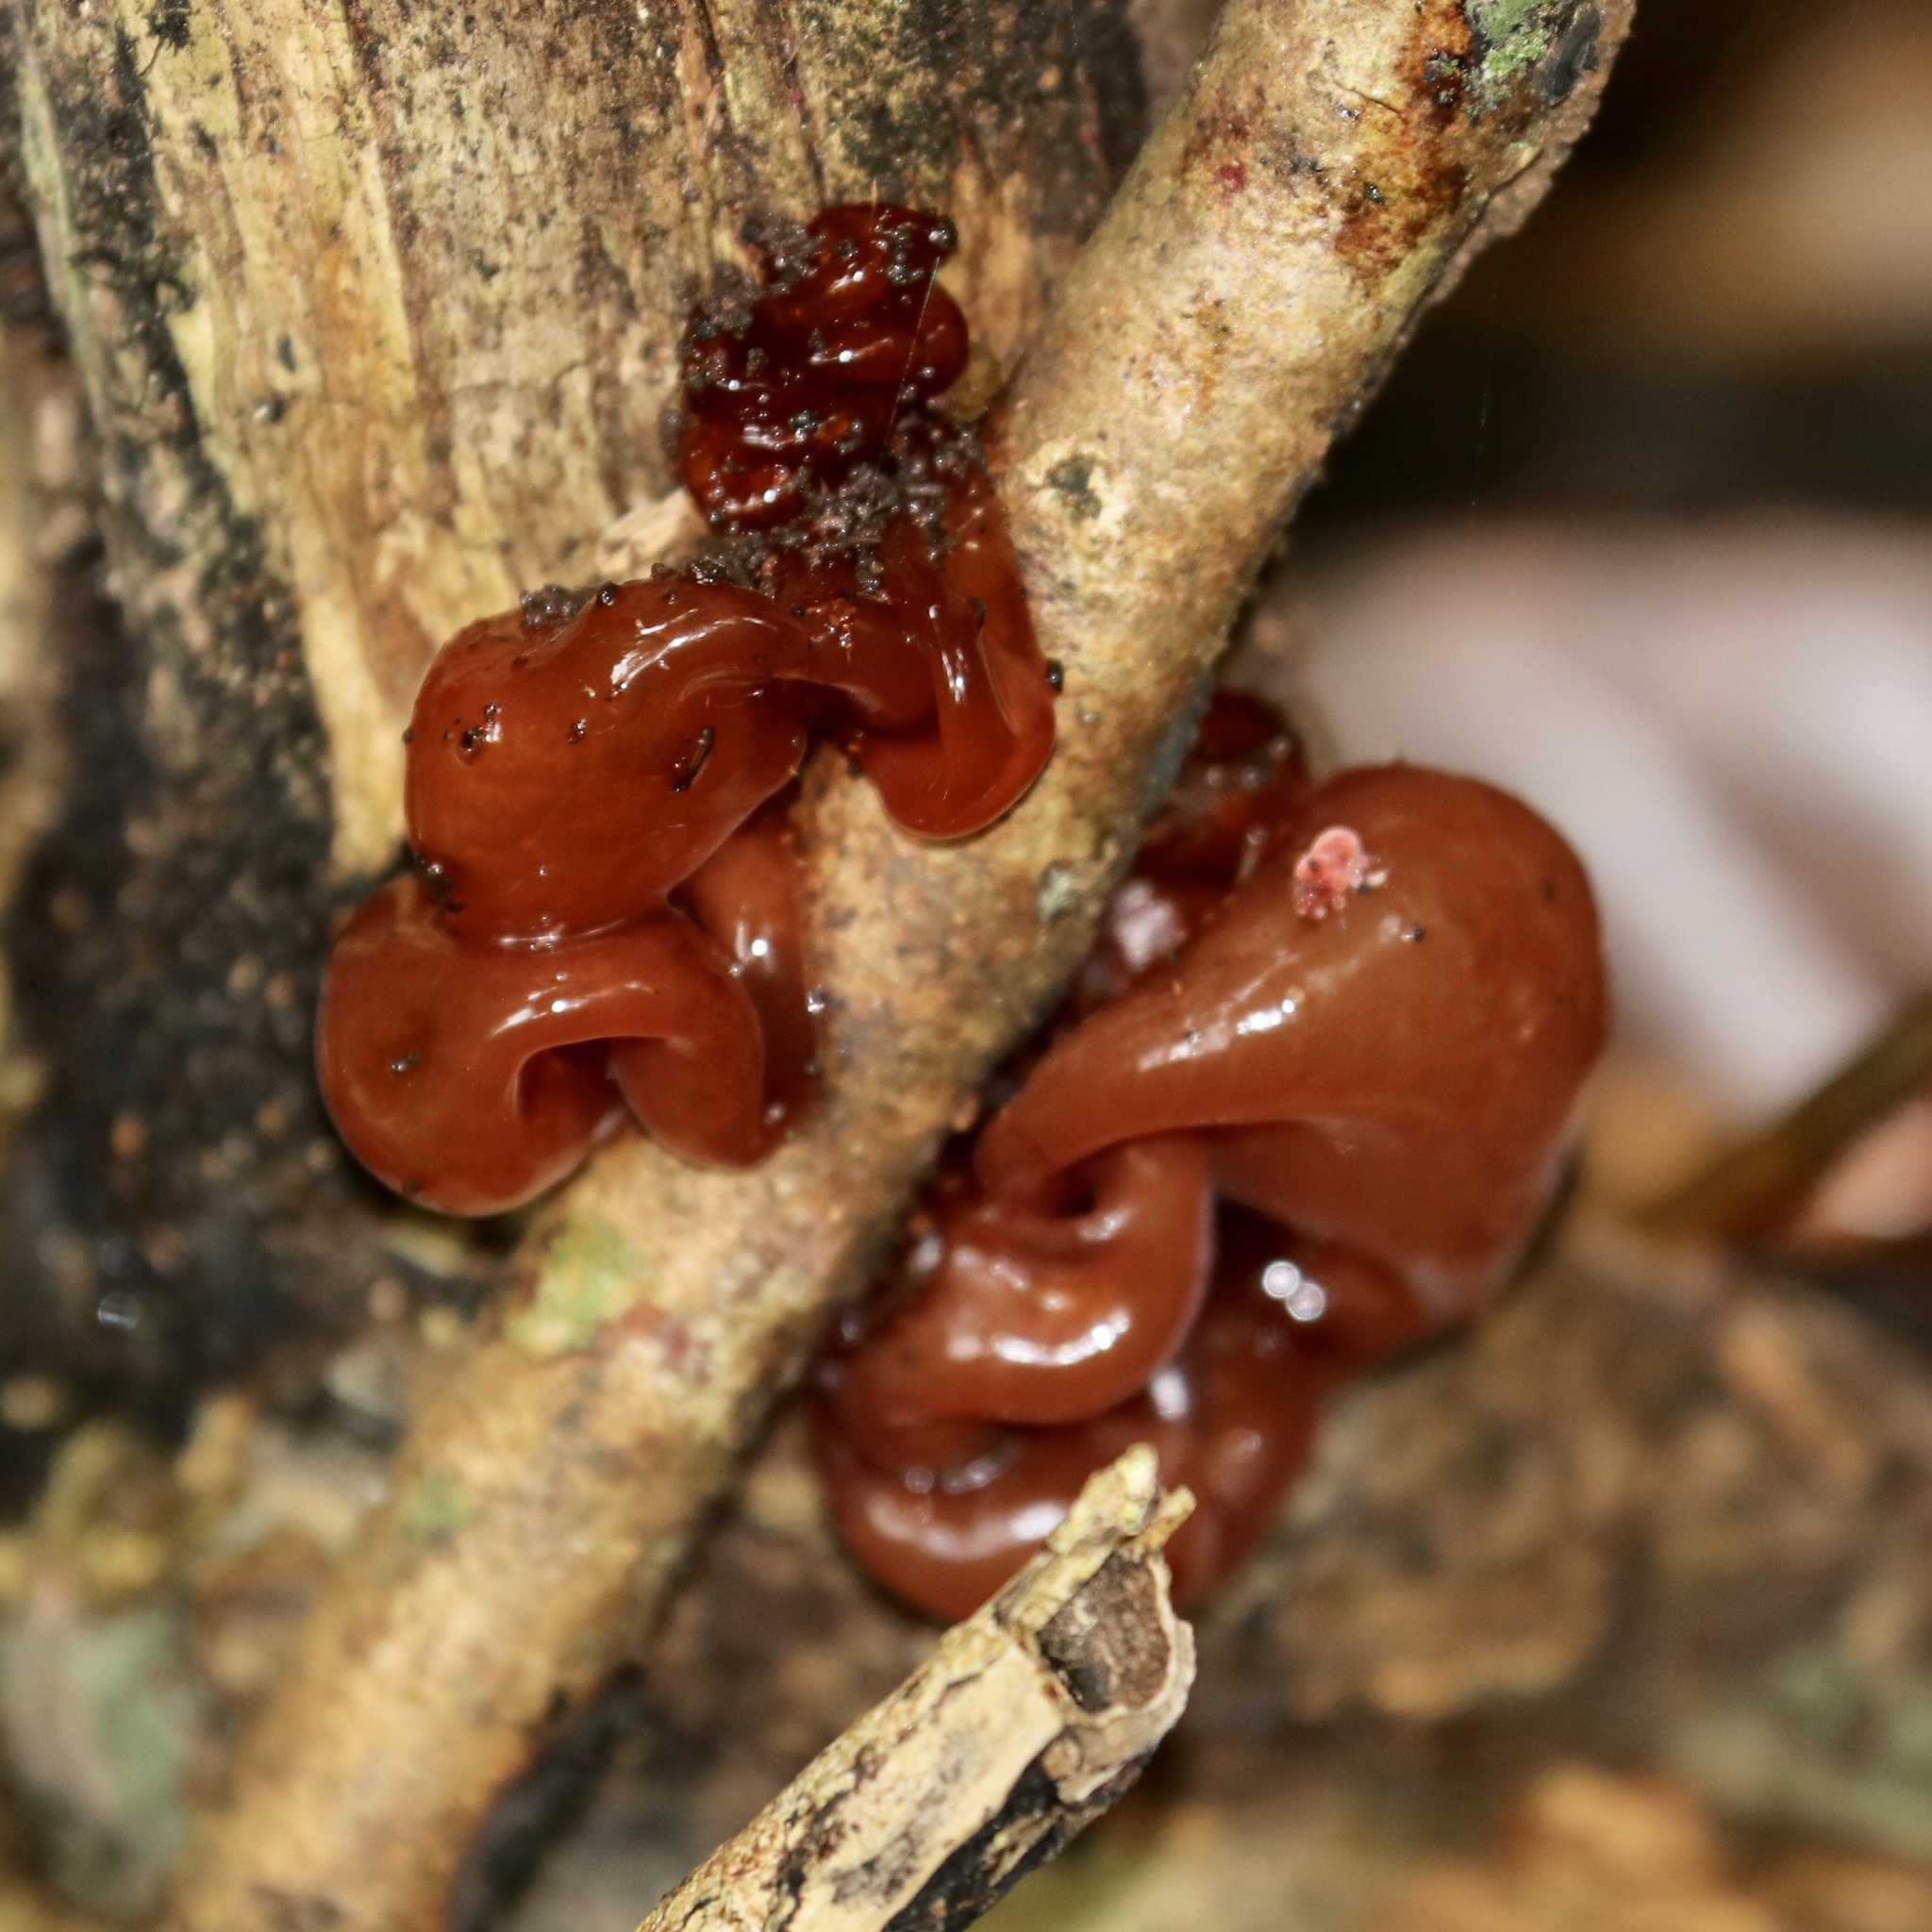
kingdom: Fungi
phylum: Basidiomycota
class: Tremellomycetes
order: Tremellales
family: Tremellaceae
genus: Tremella
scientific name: Tremella wrightii
